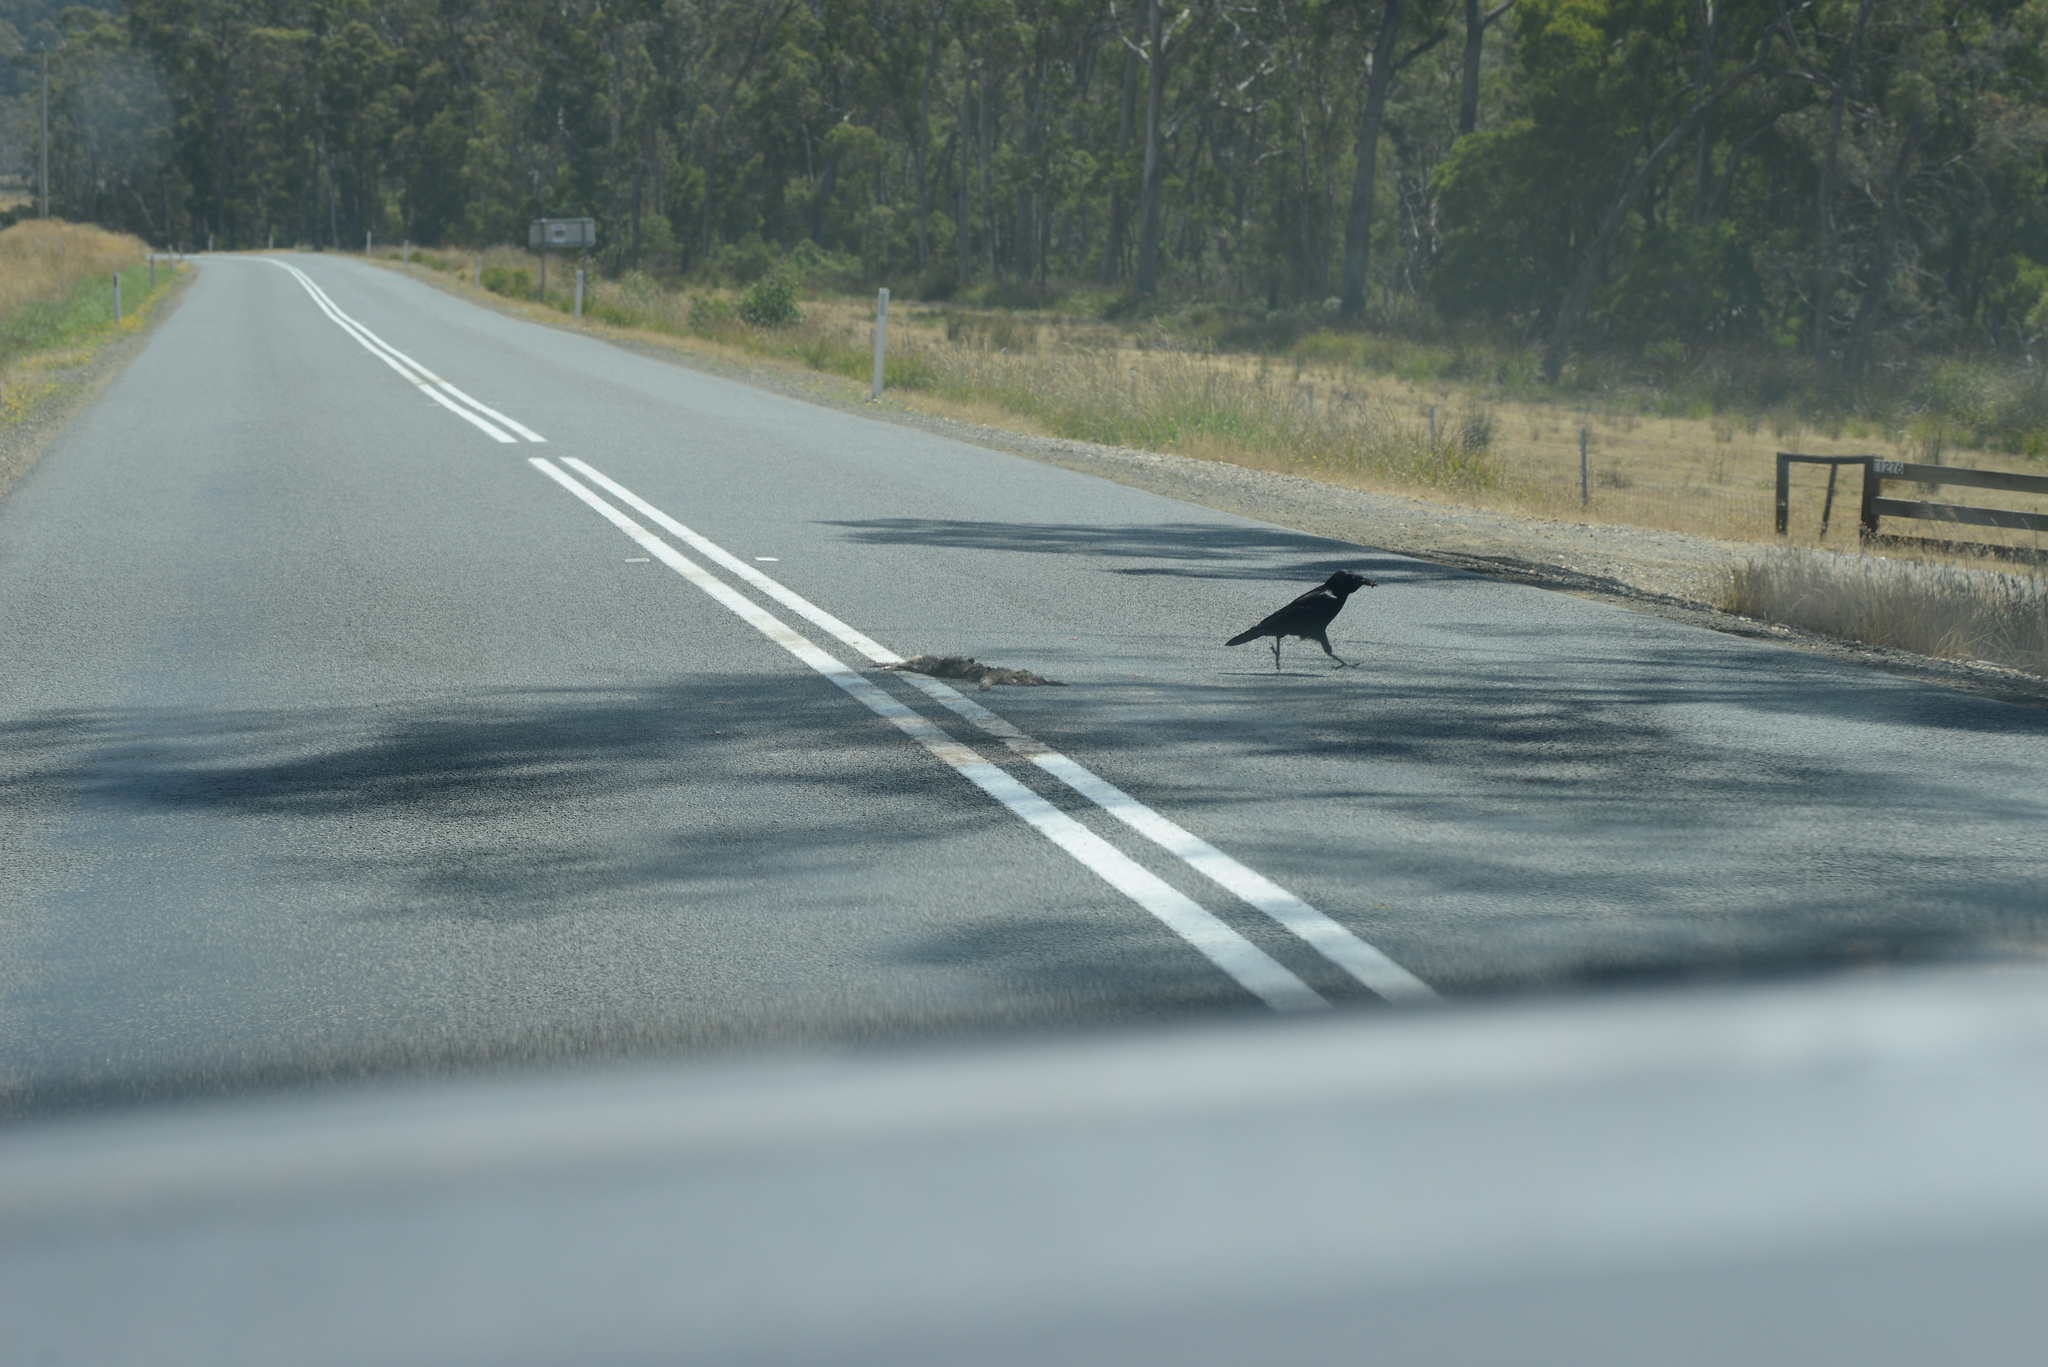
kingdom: Animalia
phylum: Chordata
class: Aves
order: Passeriformes
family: Corvidae
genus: Corvus
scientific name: Corvus tasmanicus
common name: Forest raven
